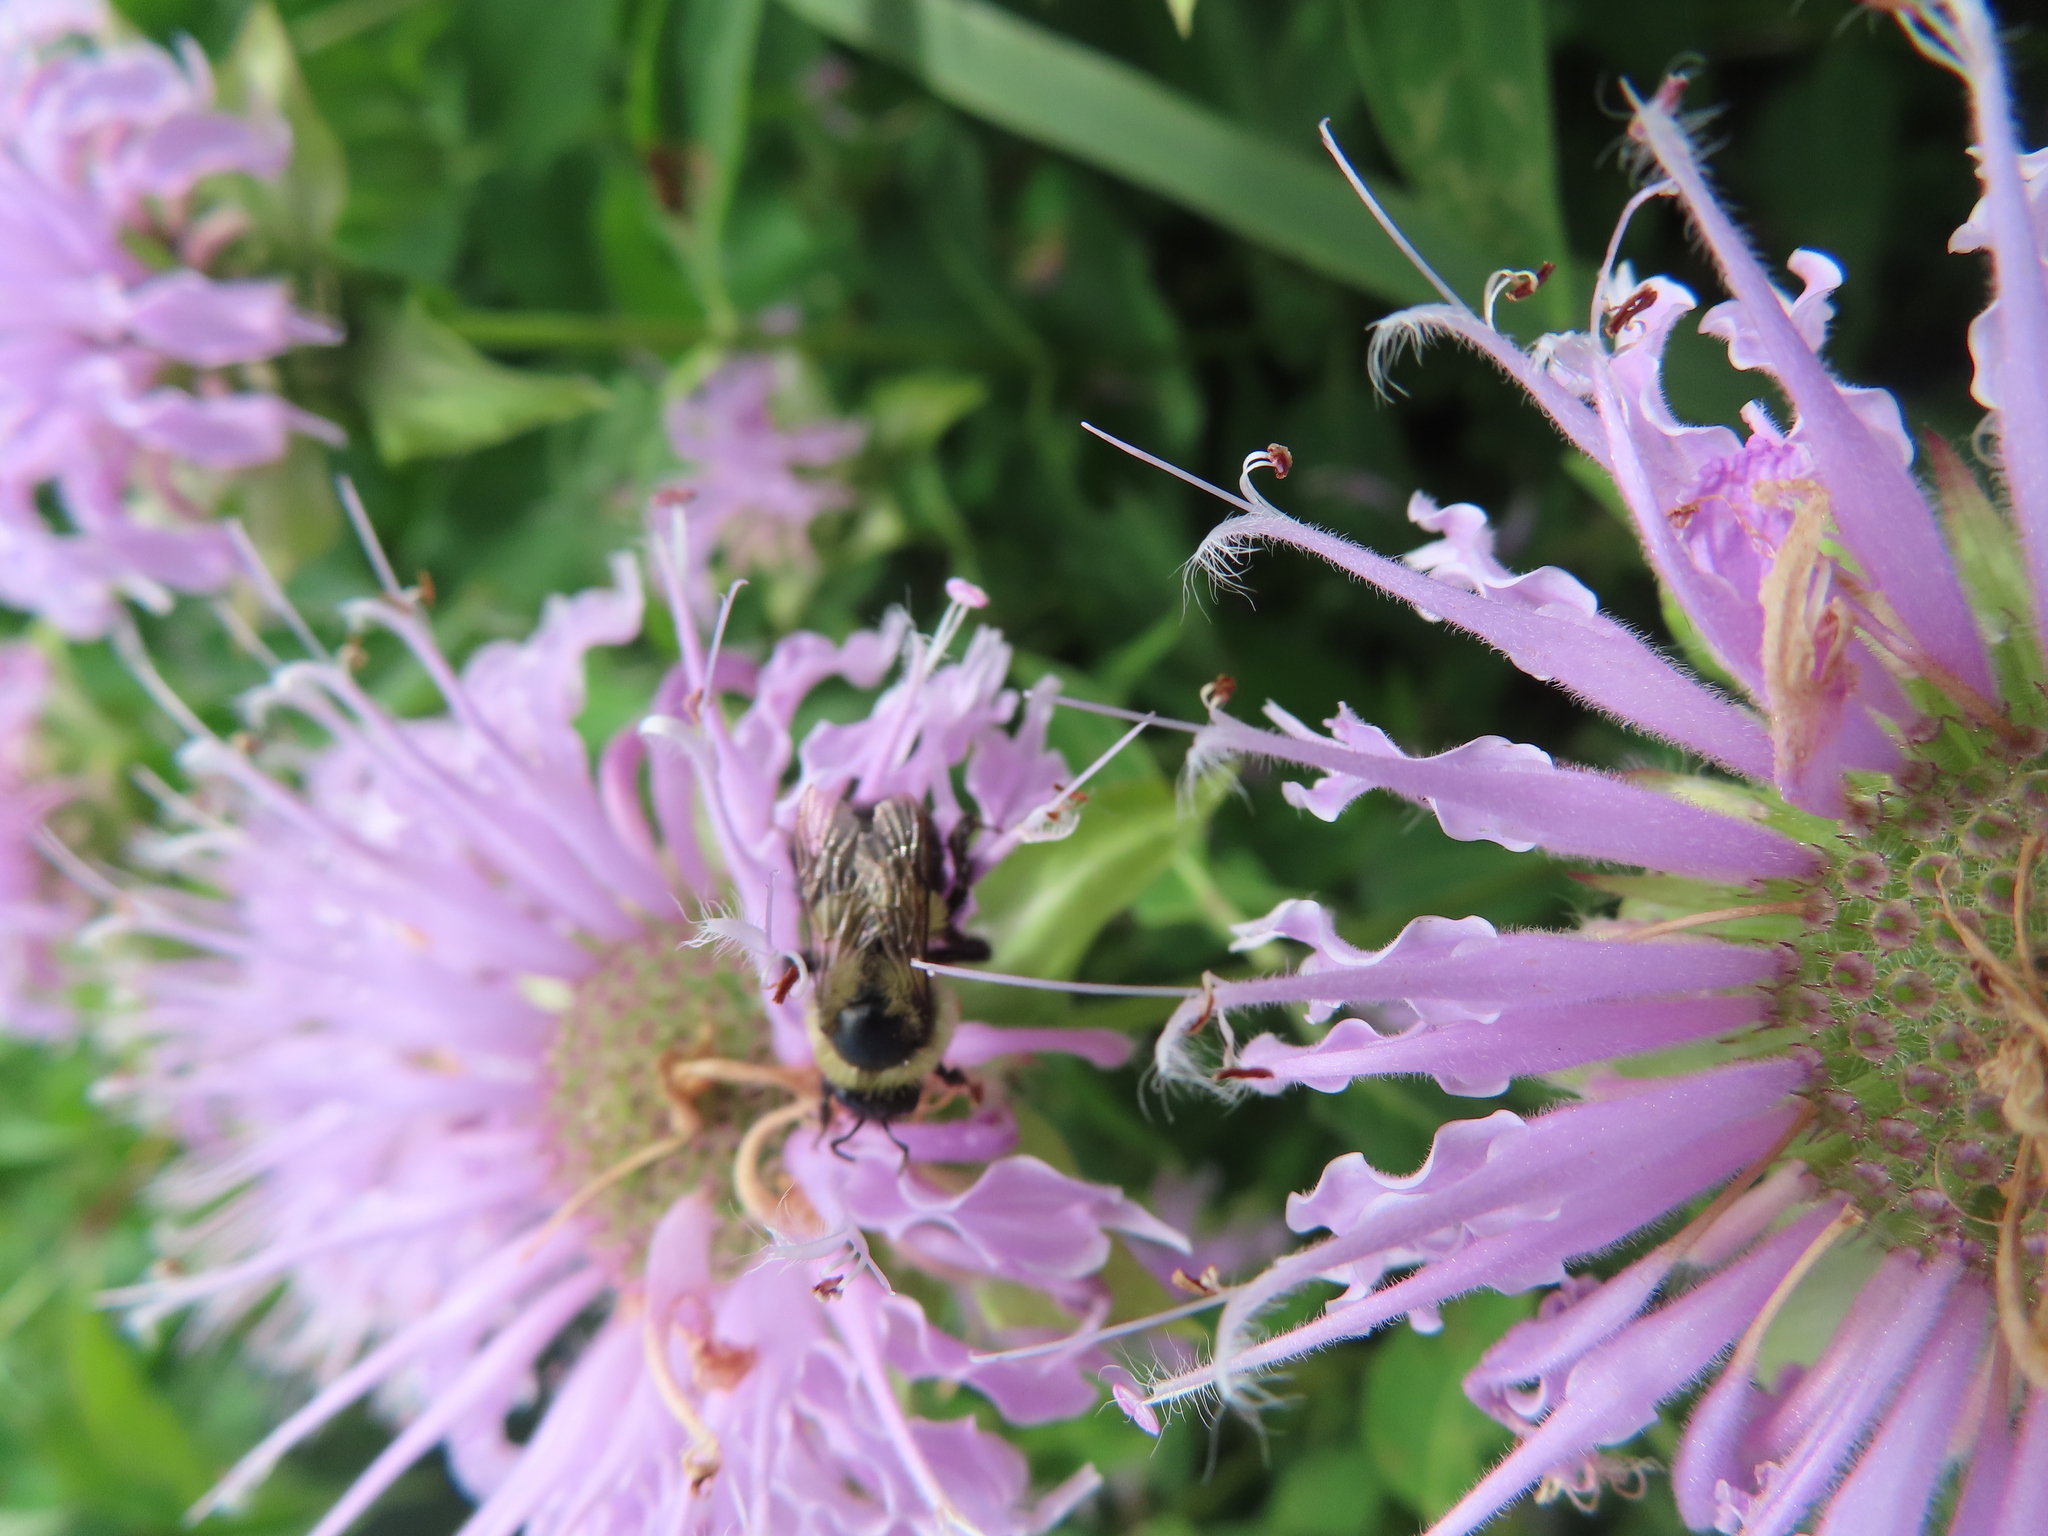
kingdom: Animalia
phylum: Arthropoda
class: Insecta
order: Hymenoptera
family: Apidae
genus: Bombus
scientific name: Bombus impatiens
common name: Common eastern bumble bee
